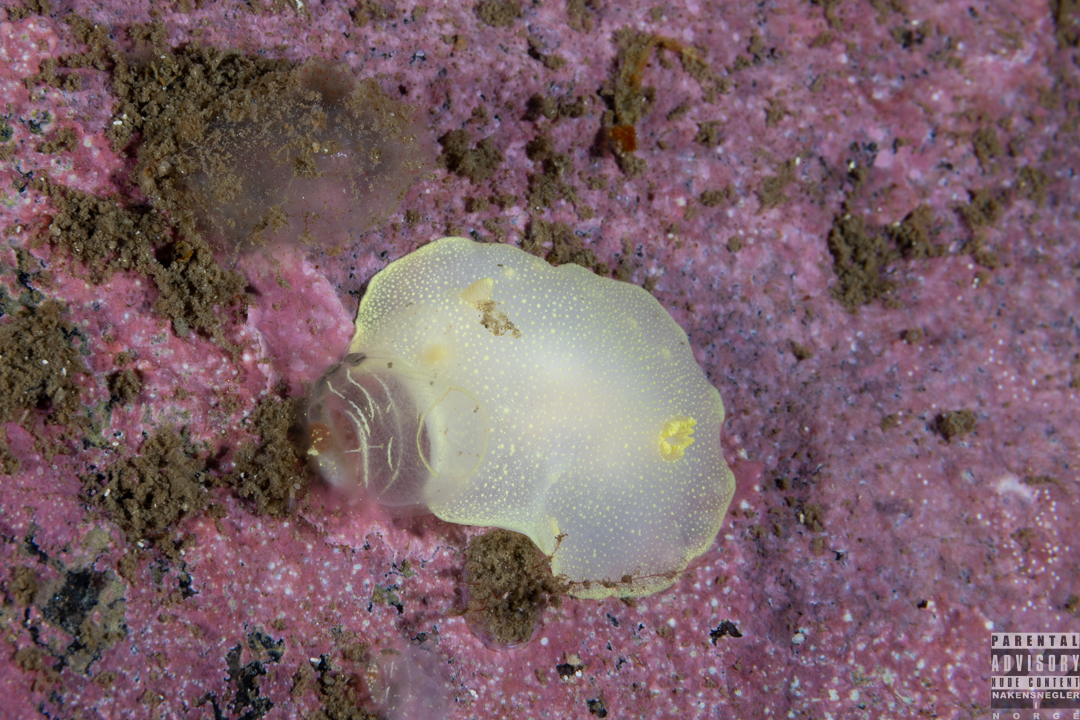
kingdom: Animalia
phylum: Mollusca
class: Gastropoda
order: Nudibranchia
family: Cadlinidae
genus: Cadlina
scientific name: Cadlina laevis
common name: White atlantic cadlina
